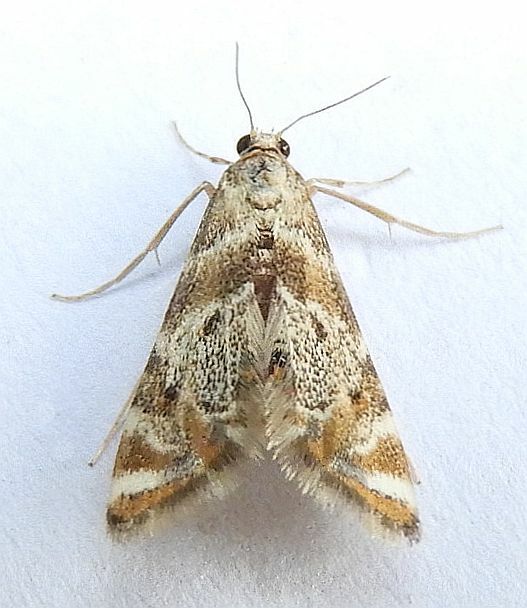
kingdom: Animalia
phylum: Arthropoda
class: Insecta
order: Lepidoptera
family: Crambidae
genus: Petrophila
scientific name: Petrophila fulicalis
